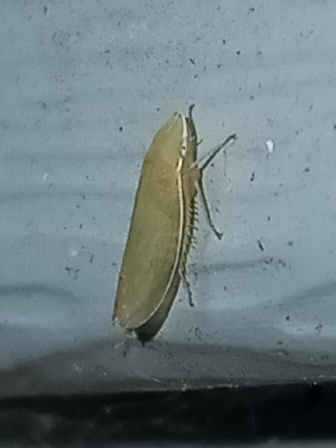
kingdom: Animalia
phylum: Arthropoda
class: Insecta
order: Hemiptera
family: Cicadellidae
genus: Memnonia
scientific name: Memnonia flavida
